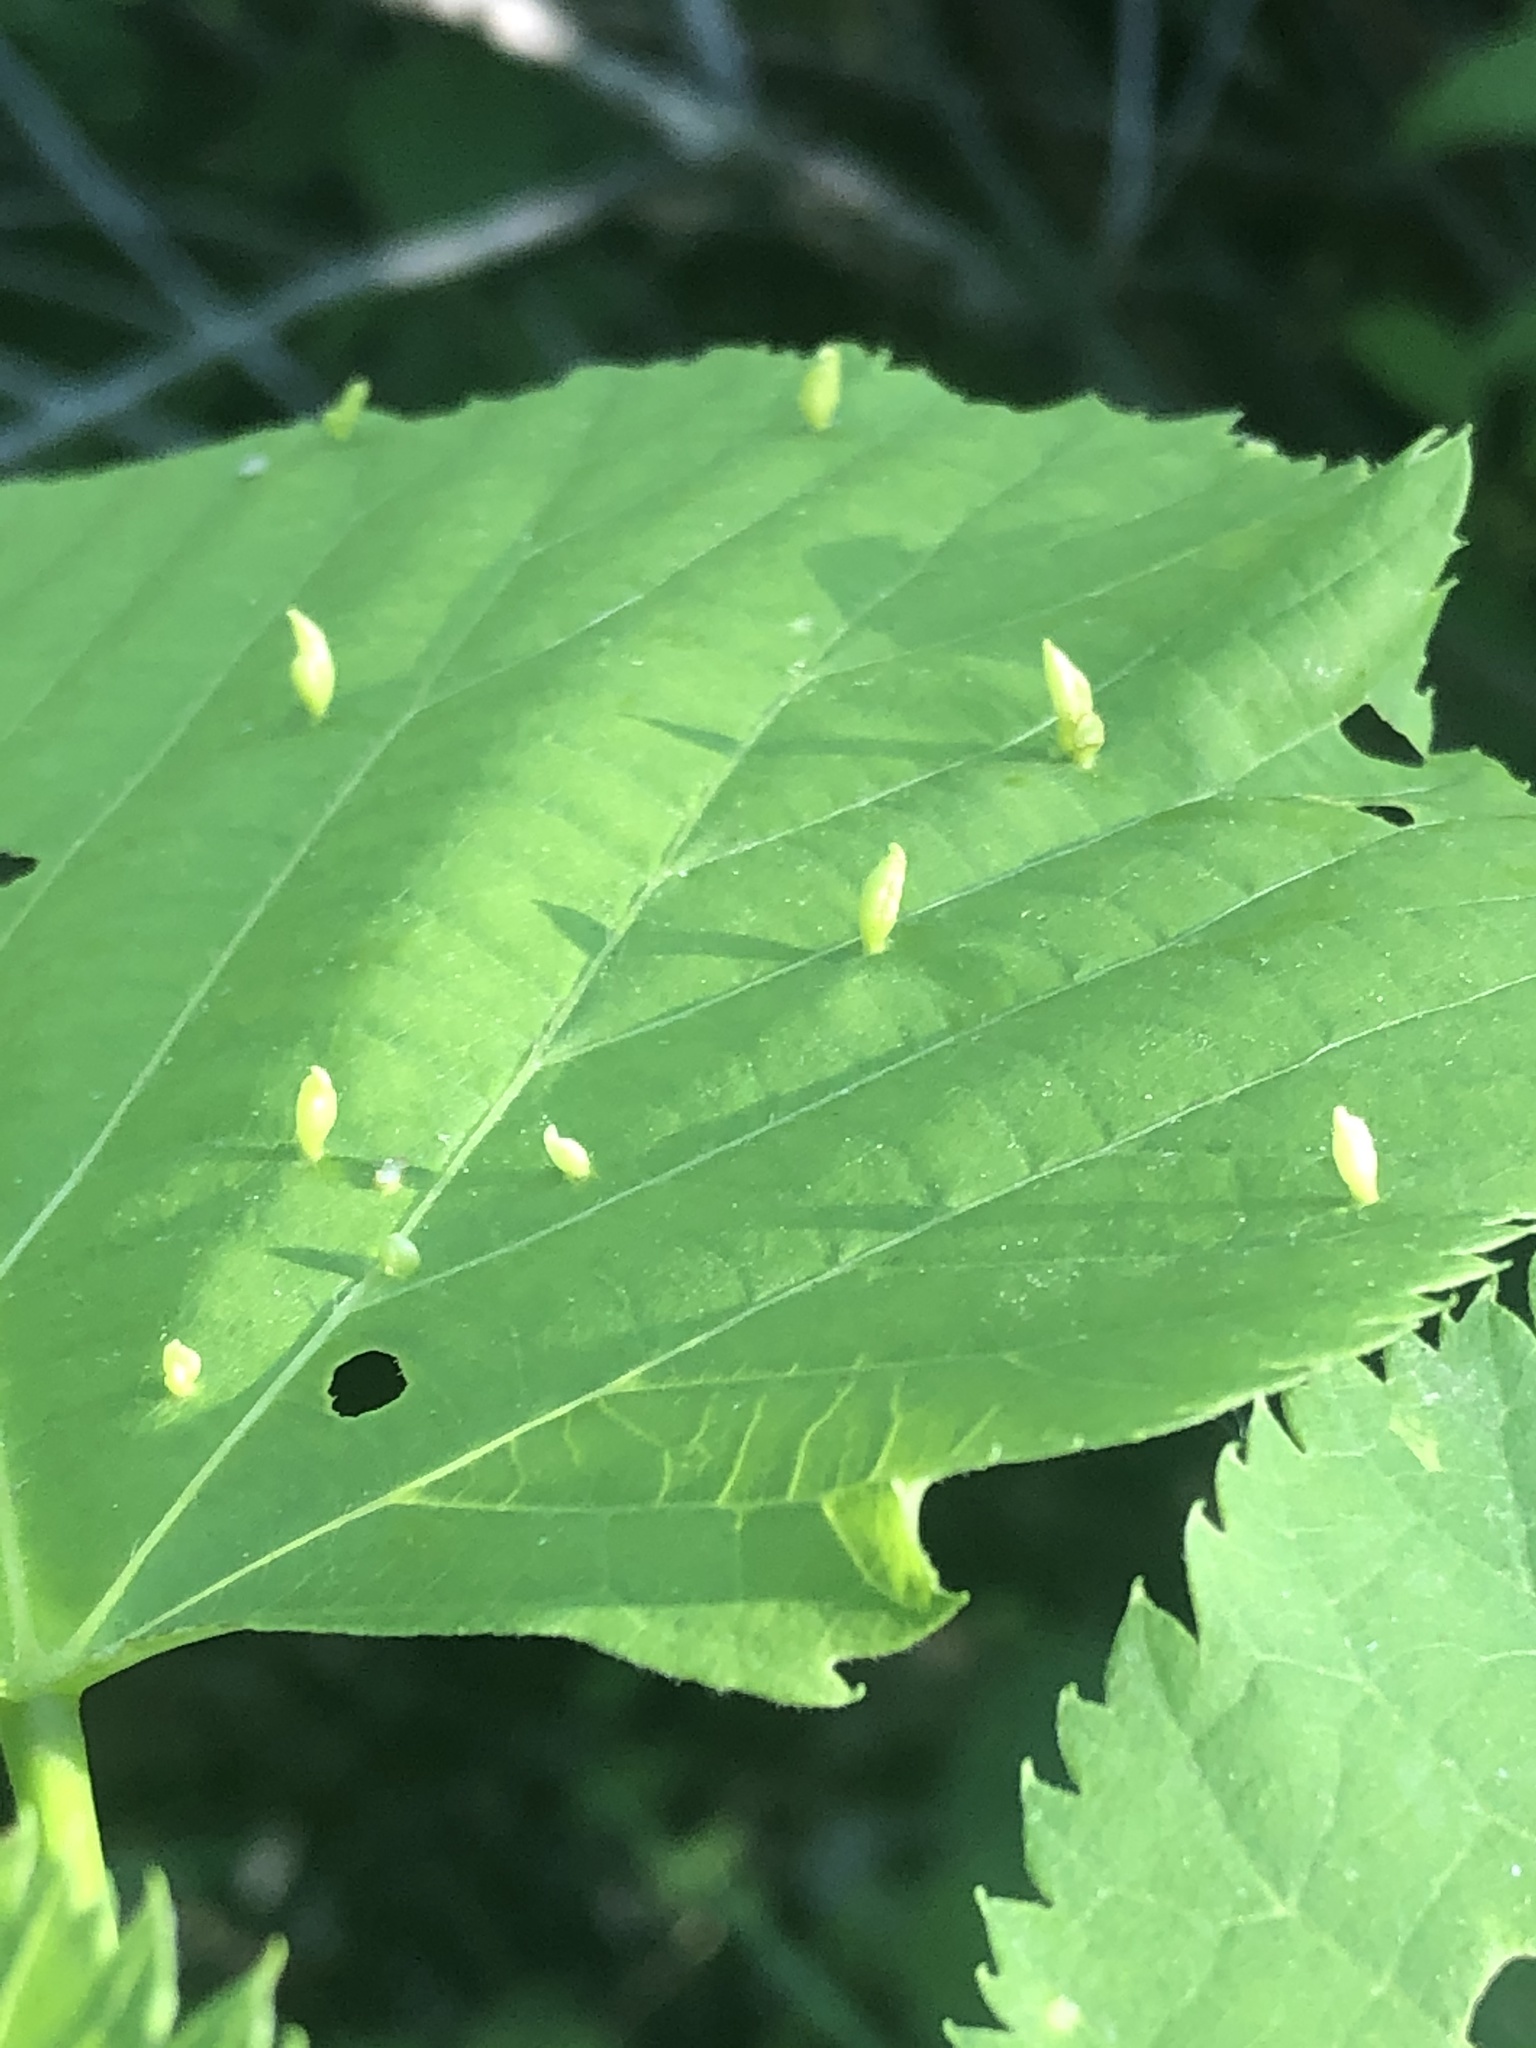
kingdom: Animalia
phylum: Arthropoda
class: Arachnida
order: Trombidiformes
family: Eriophyidae
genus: Vasates
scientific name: Vasates aceriscrumena
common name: Maple spindle gall mite
